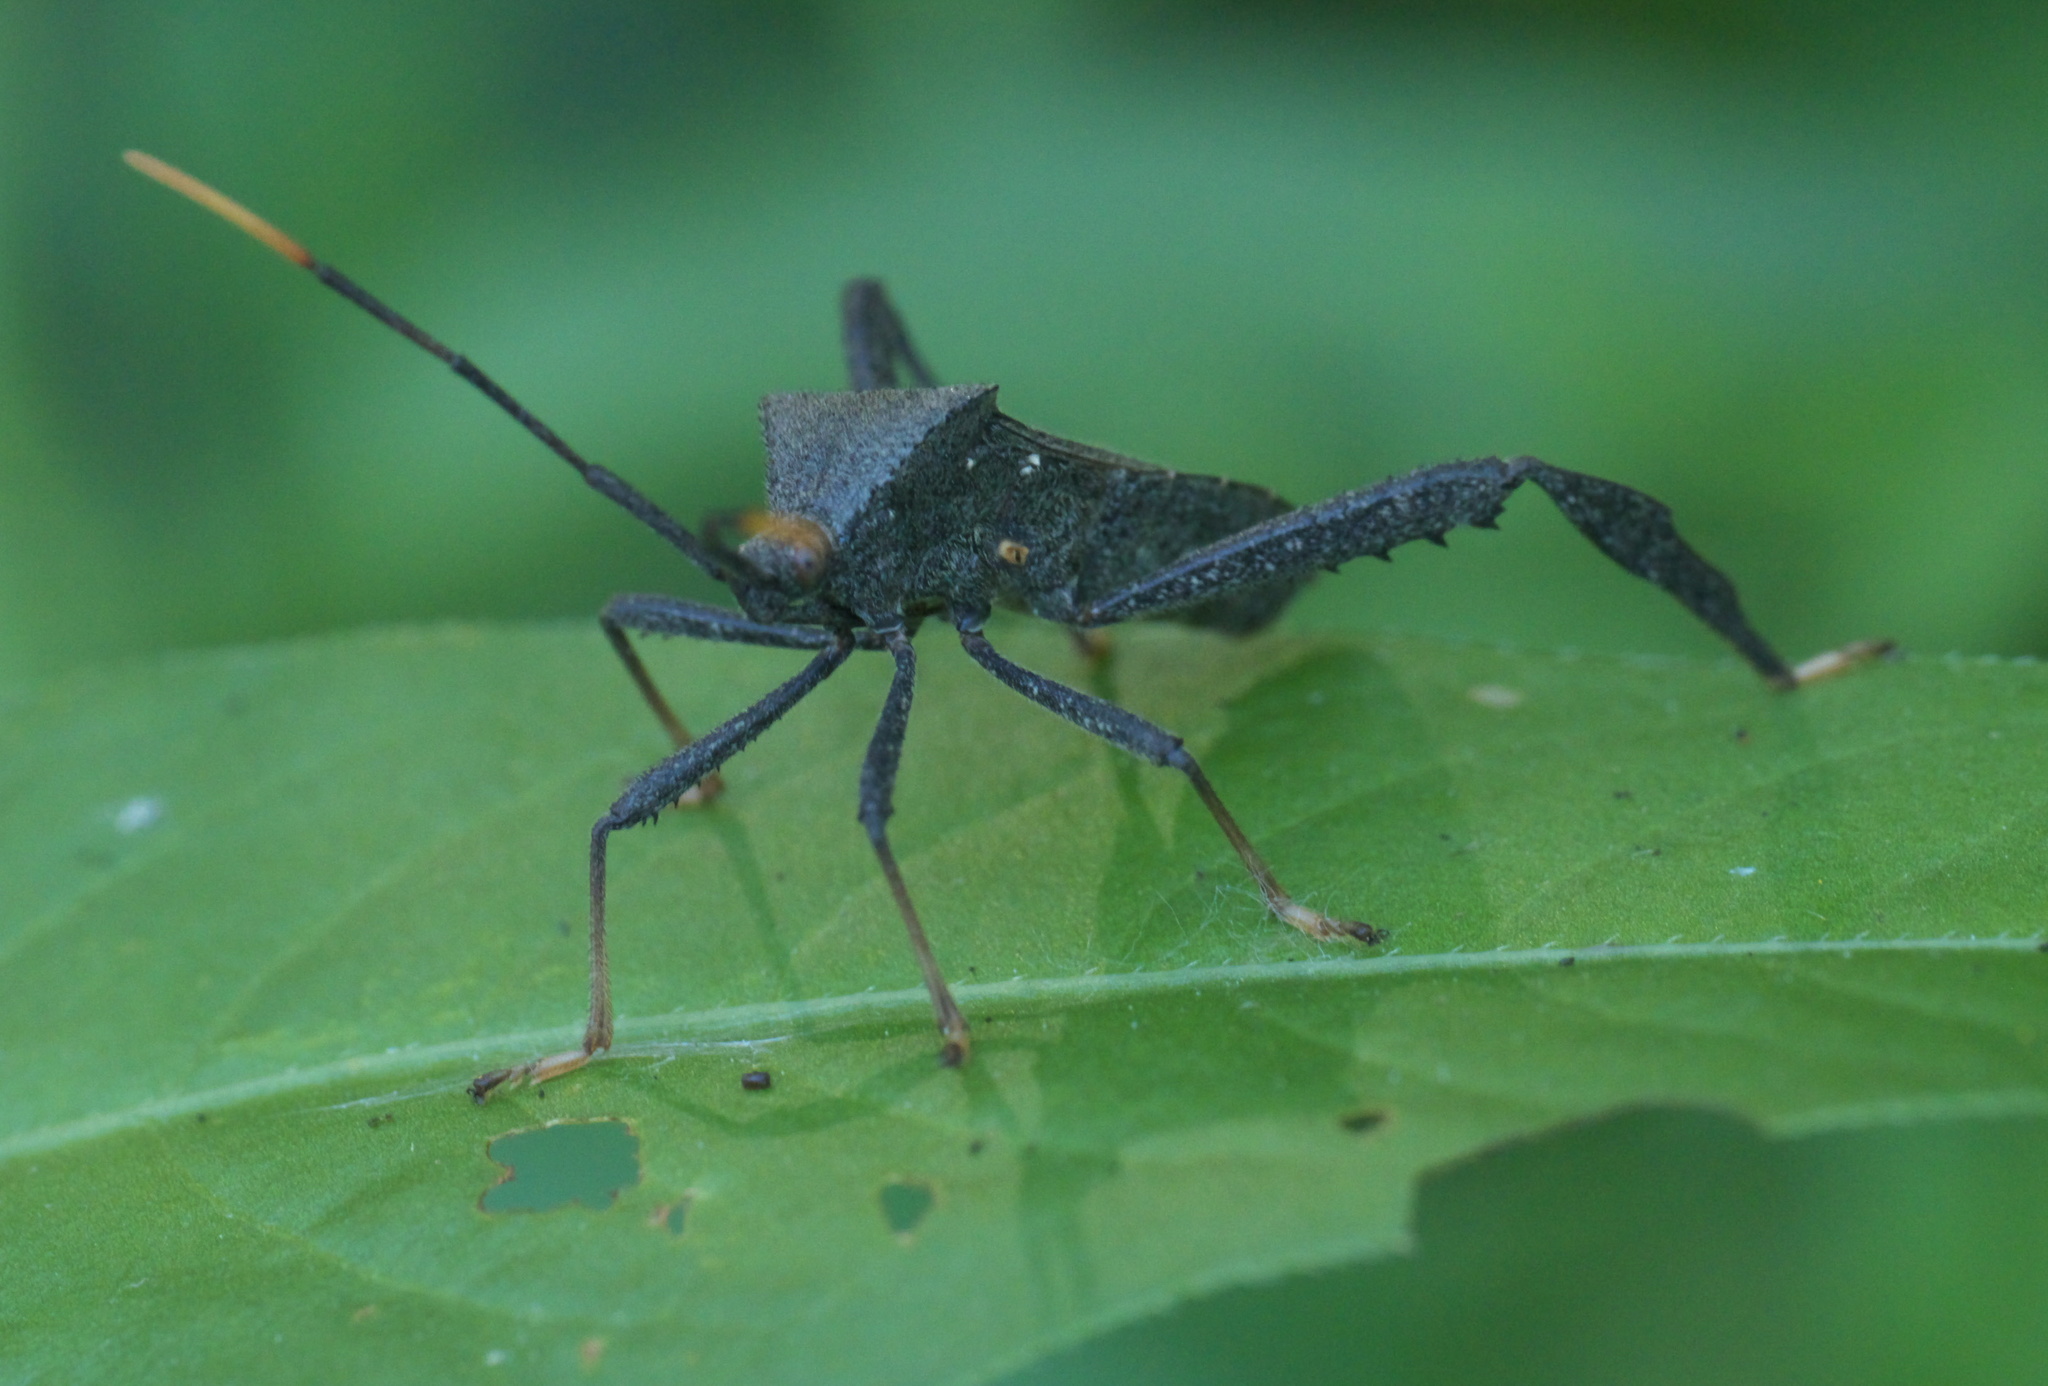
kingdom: Animalia
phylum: Arthropoda
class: Insecta
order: Hemiptera
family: Coreidae
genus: Acanthocephala
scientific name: Acanthocephala terminalis
